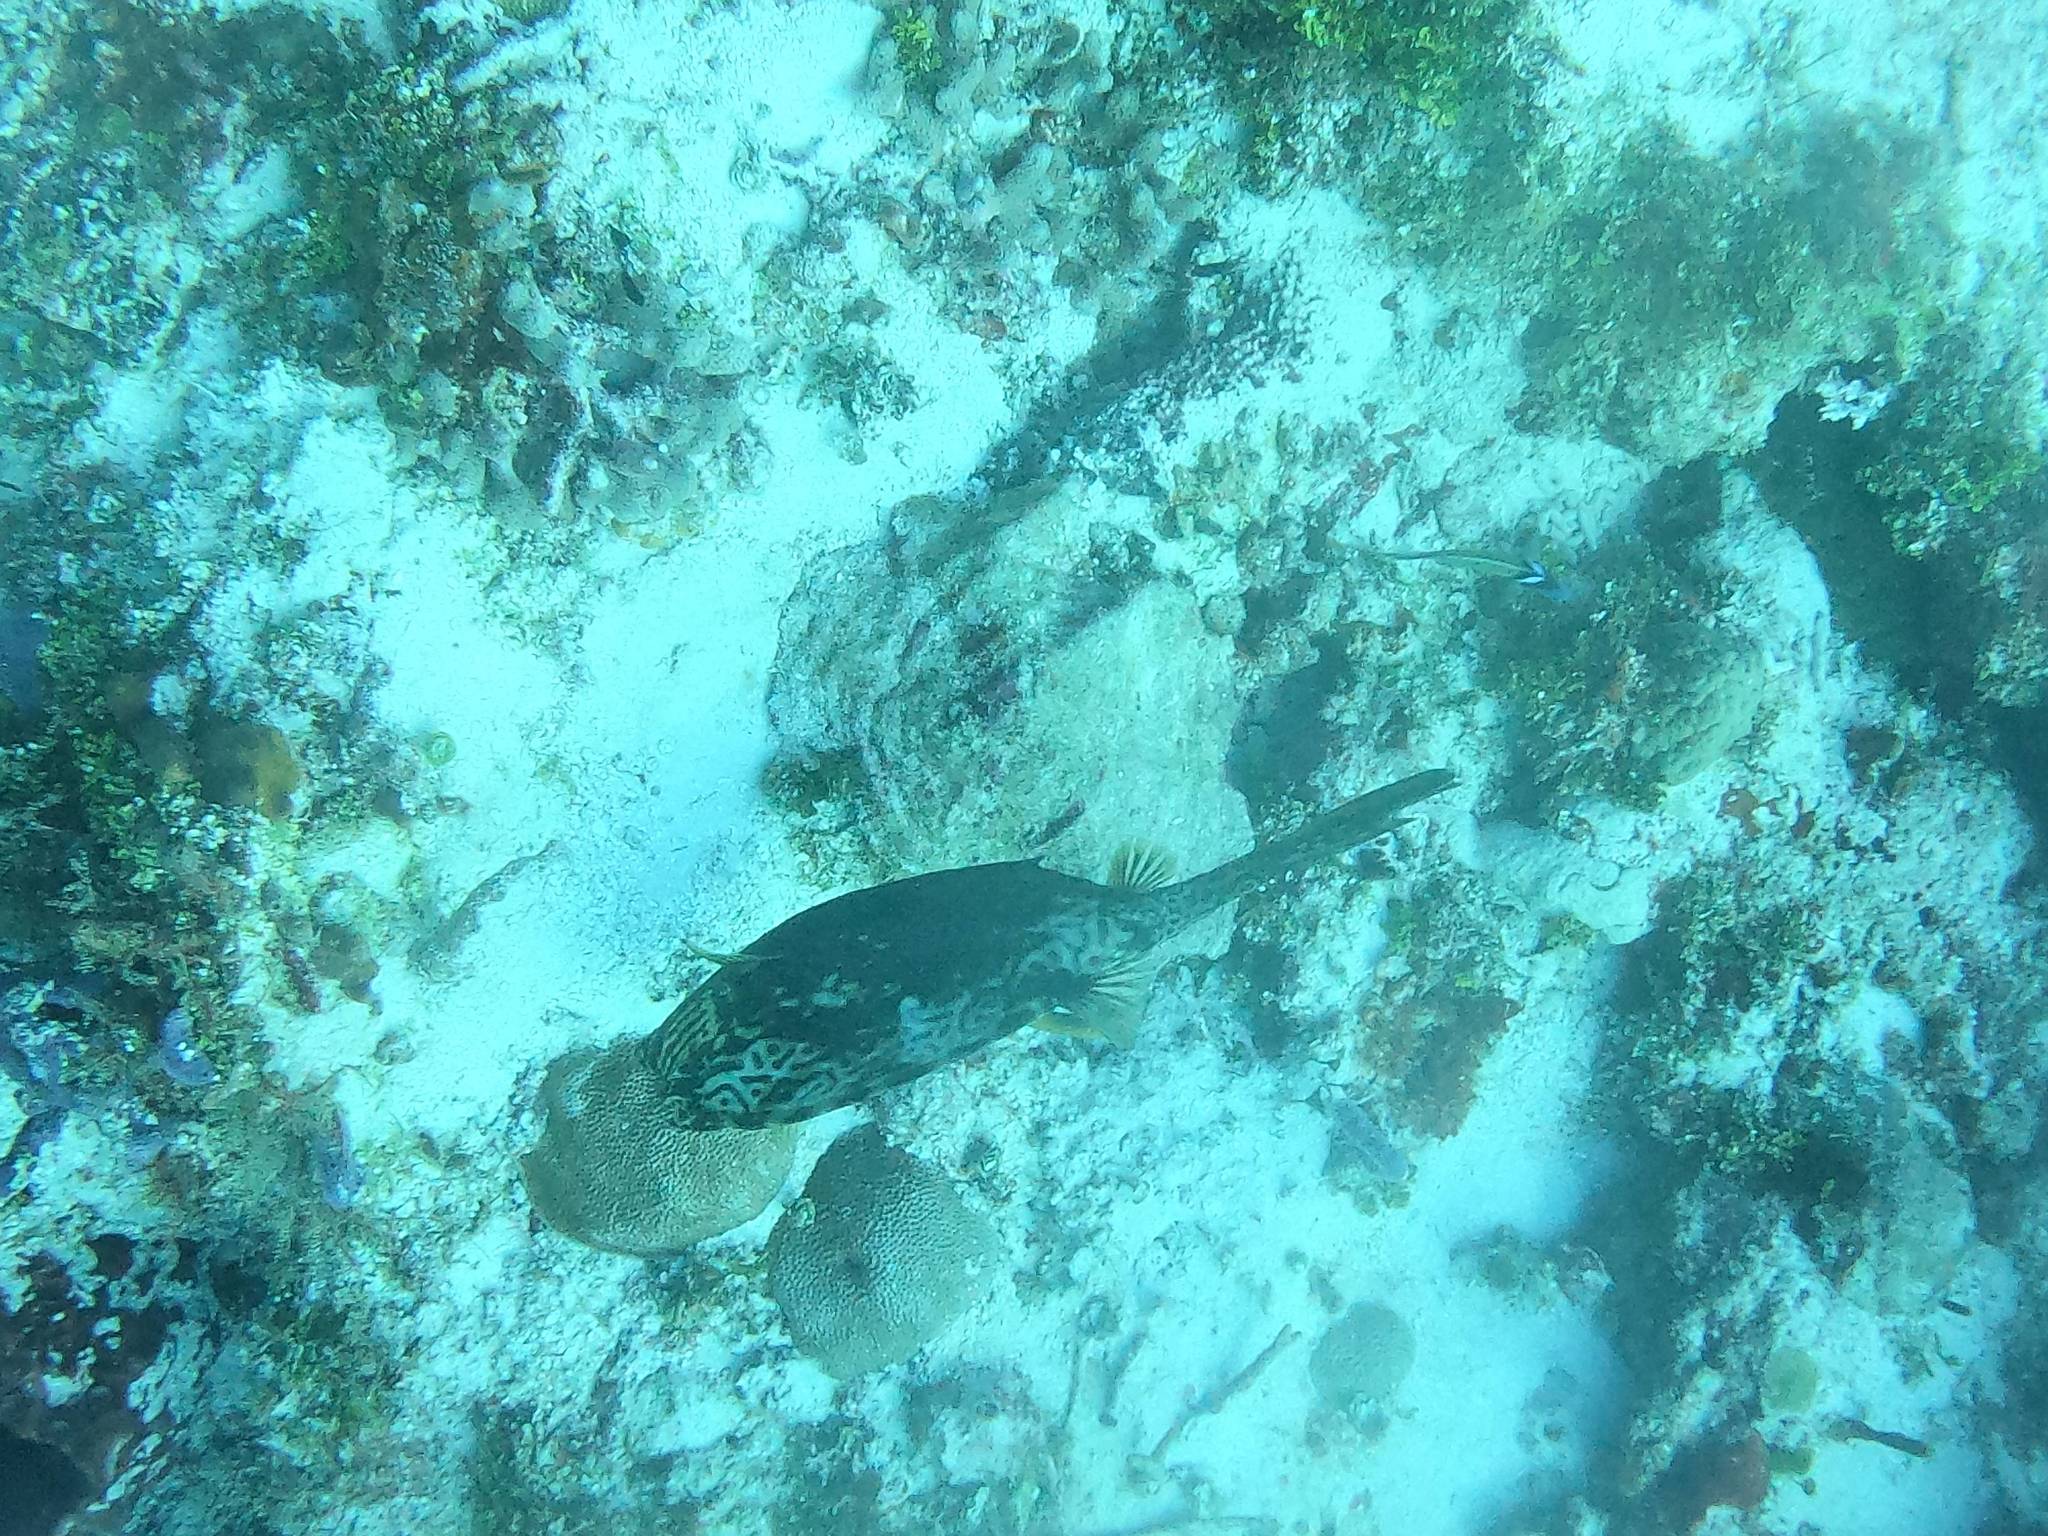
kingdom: Animalia
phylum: Chordata
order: Tetraodontiformes
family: Ostraciidae
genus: Acanthostracion
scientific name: Acanthostracion quadricornis
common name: Scrawled cowfish
